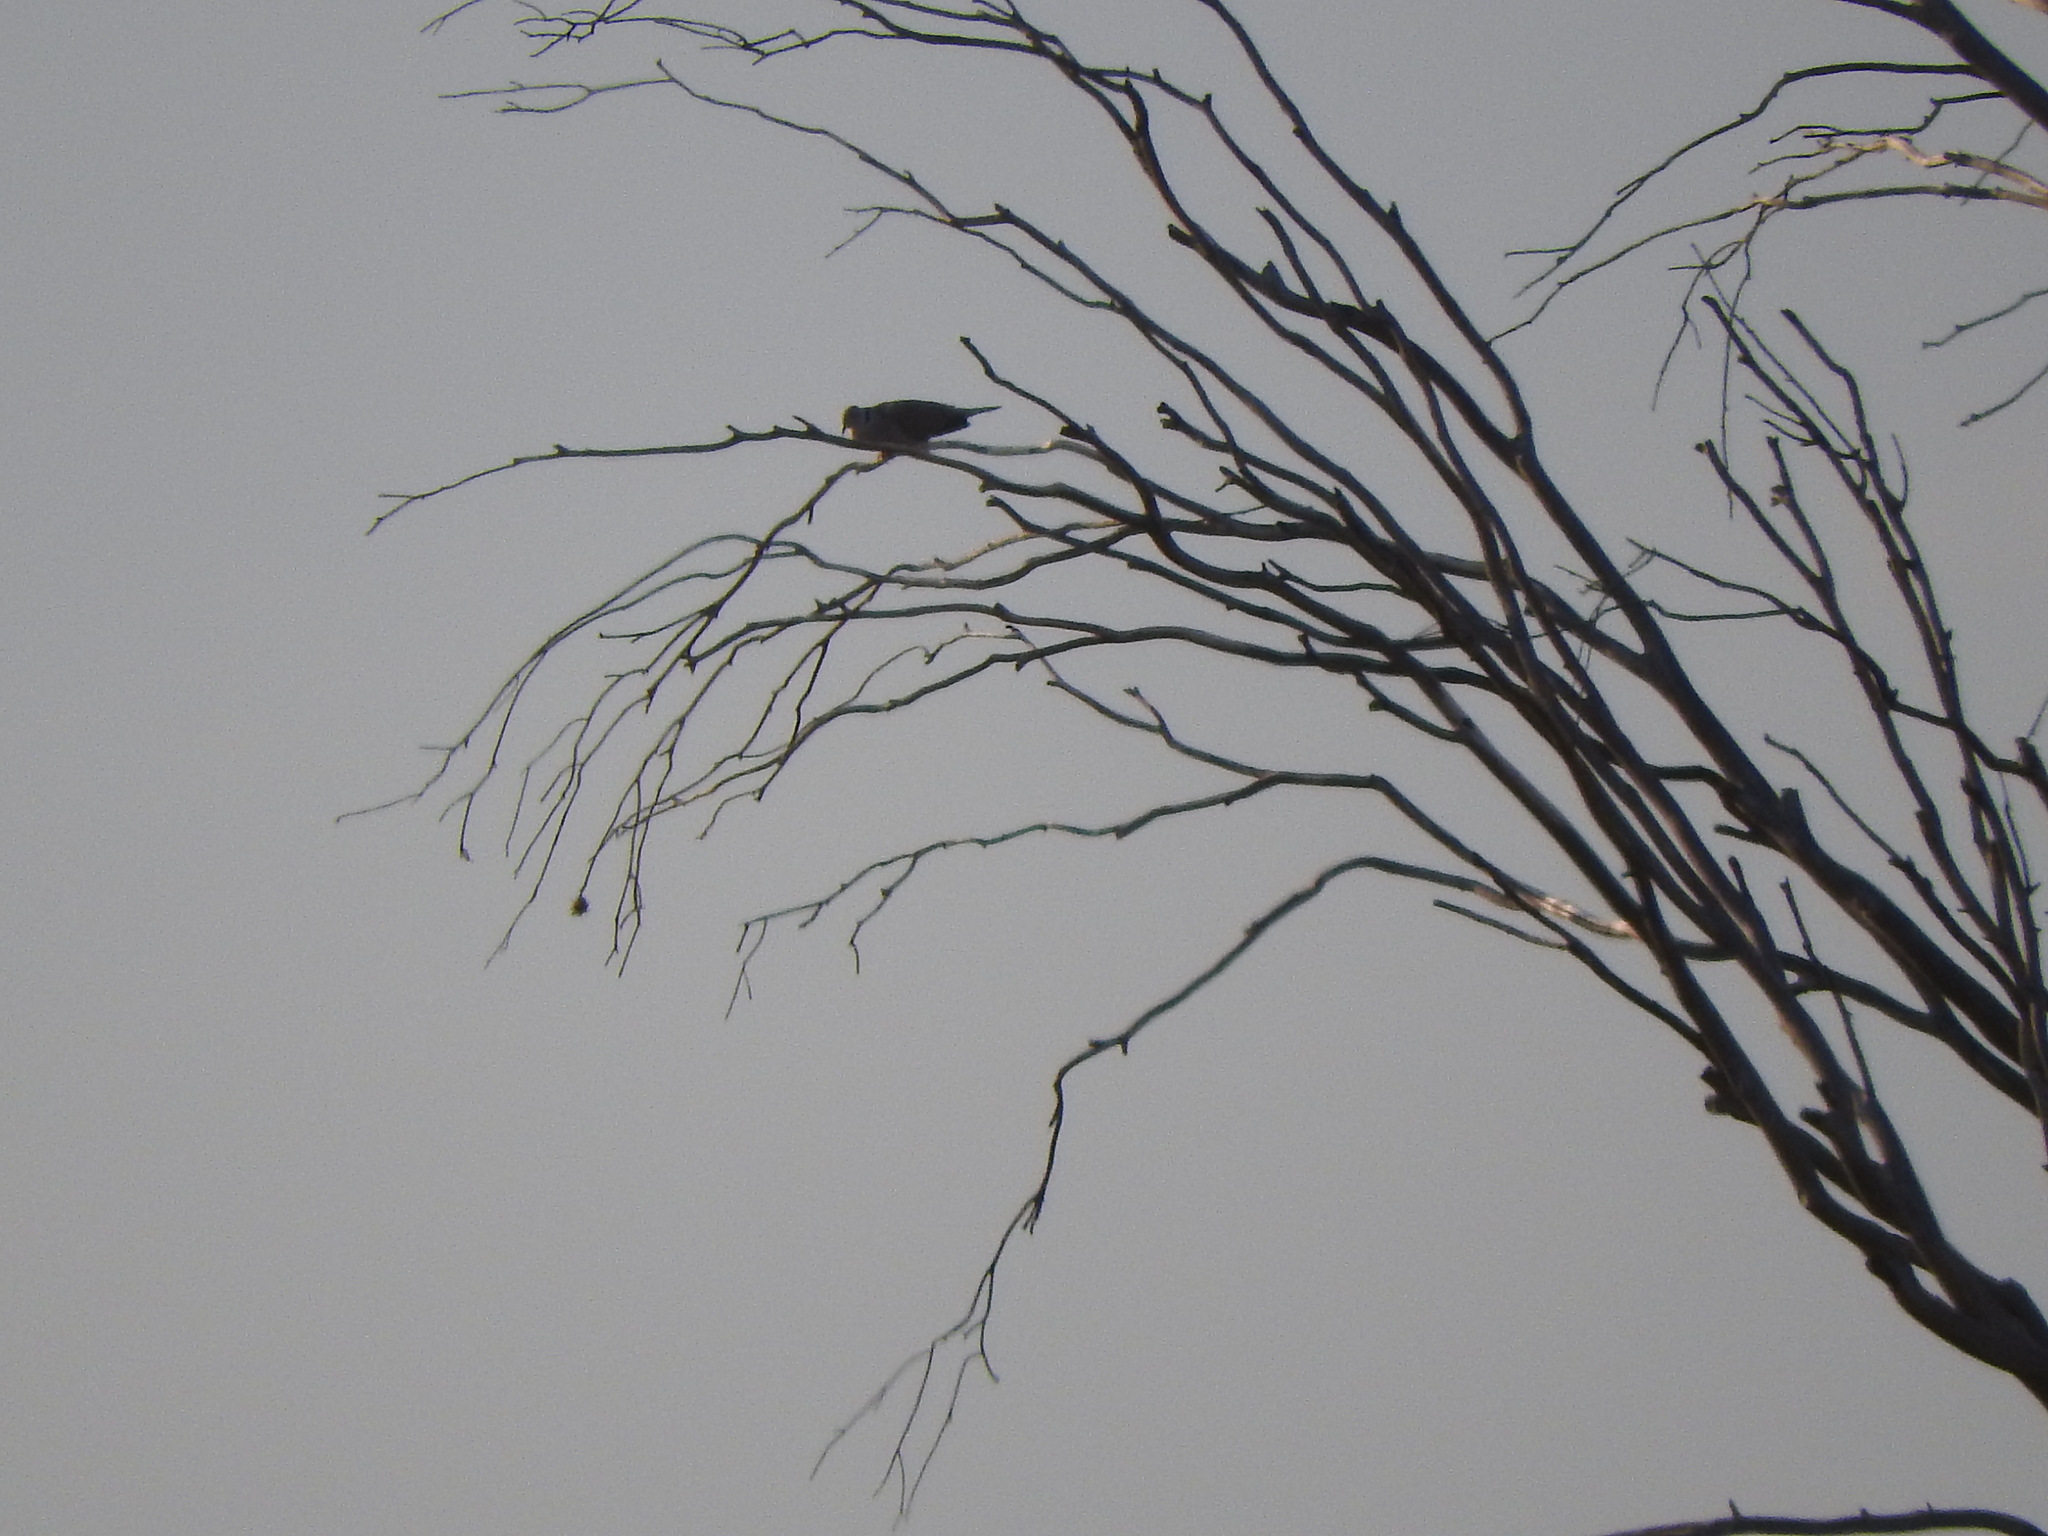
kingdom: Animalia
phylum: Chordata
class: Aves
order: Columbiformes
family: Columbidae
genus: Streptopelia
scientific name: Streptopelia decaocto
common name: Eurasian collared dove
